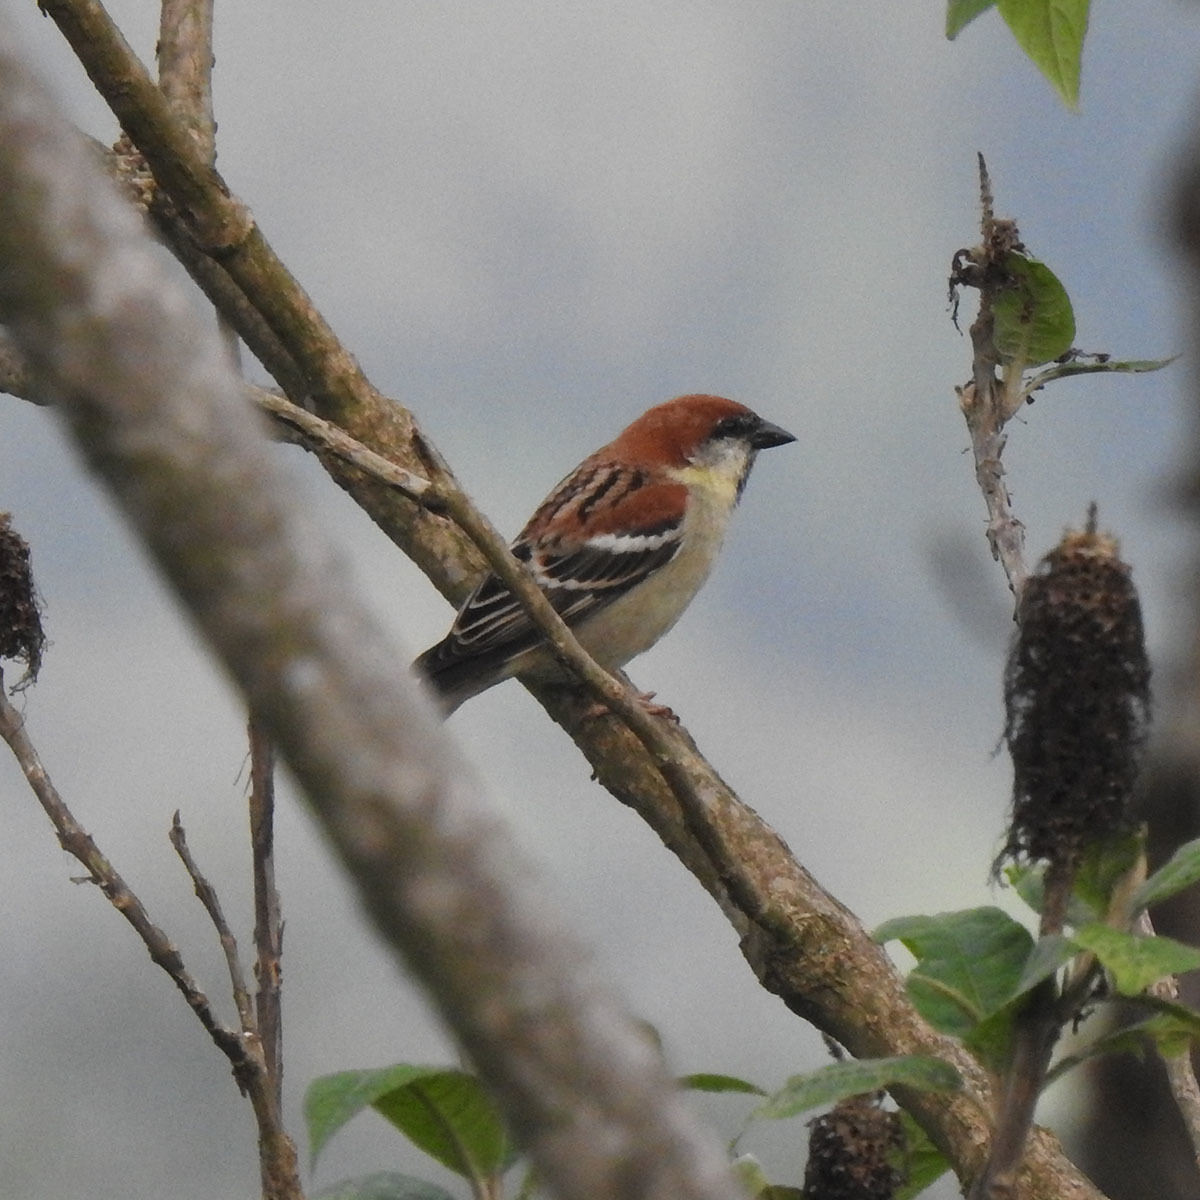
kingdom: Animalia
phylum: Chordata
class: Aves
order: Passeriformes
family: Passeridae
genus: Passer
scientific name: Passer cinnamomeus
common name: Russet sparrow
